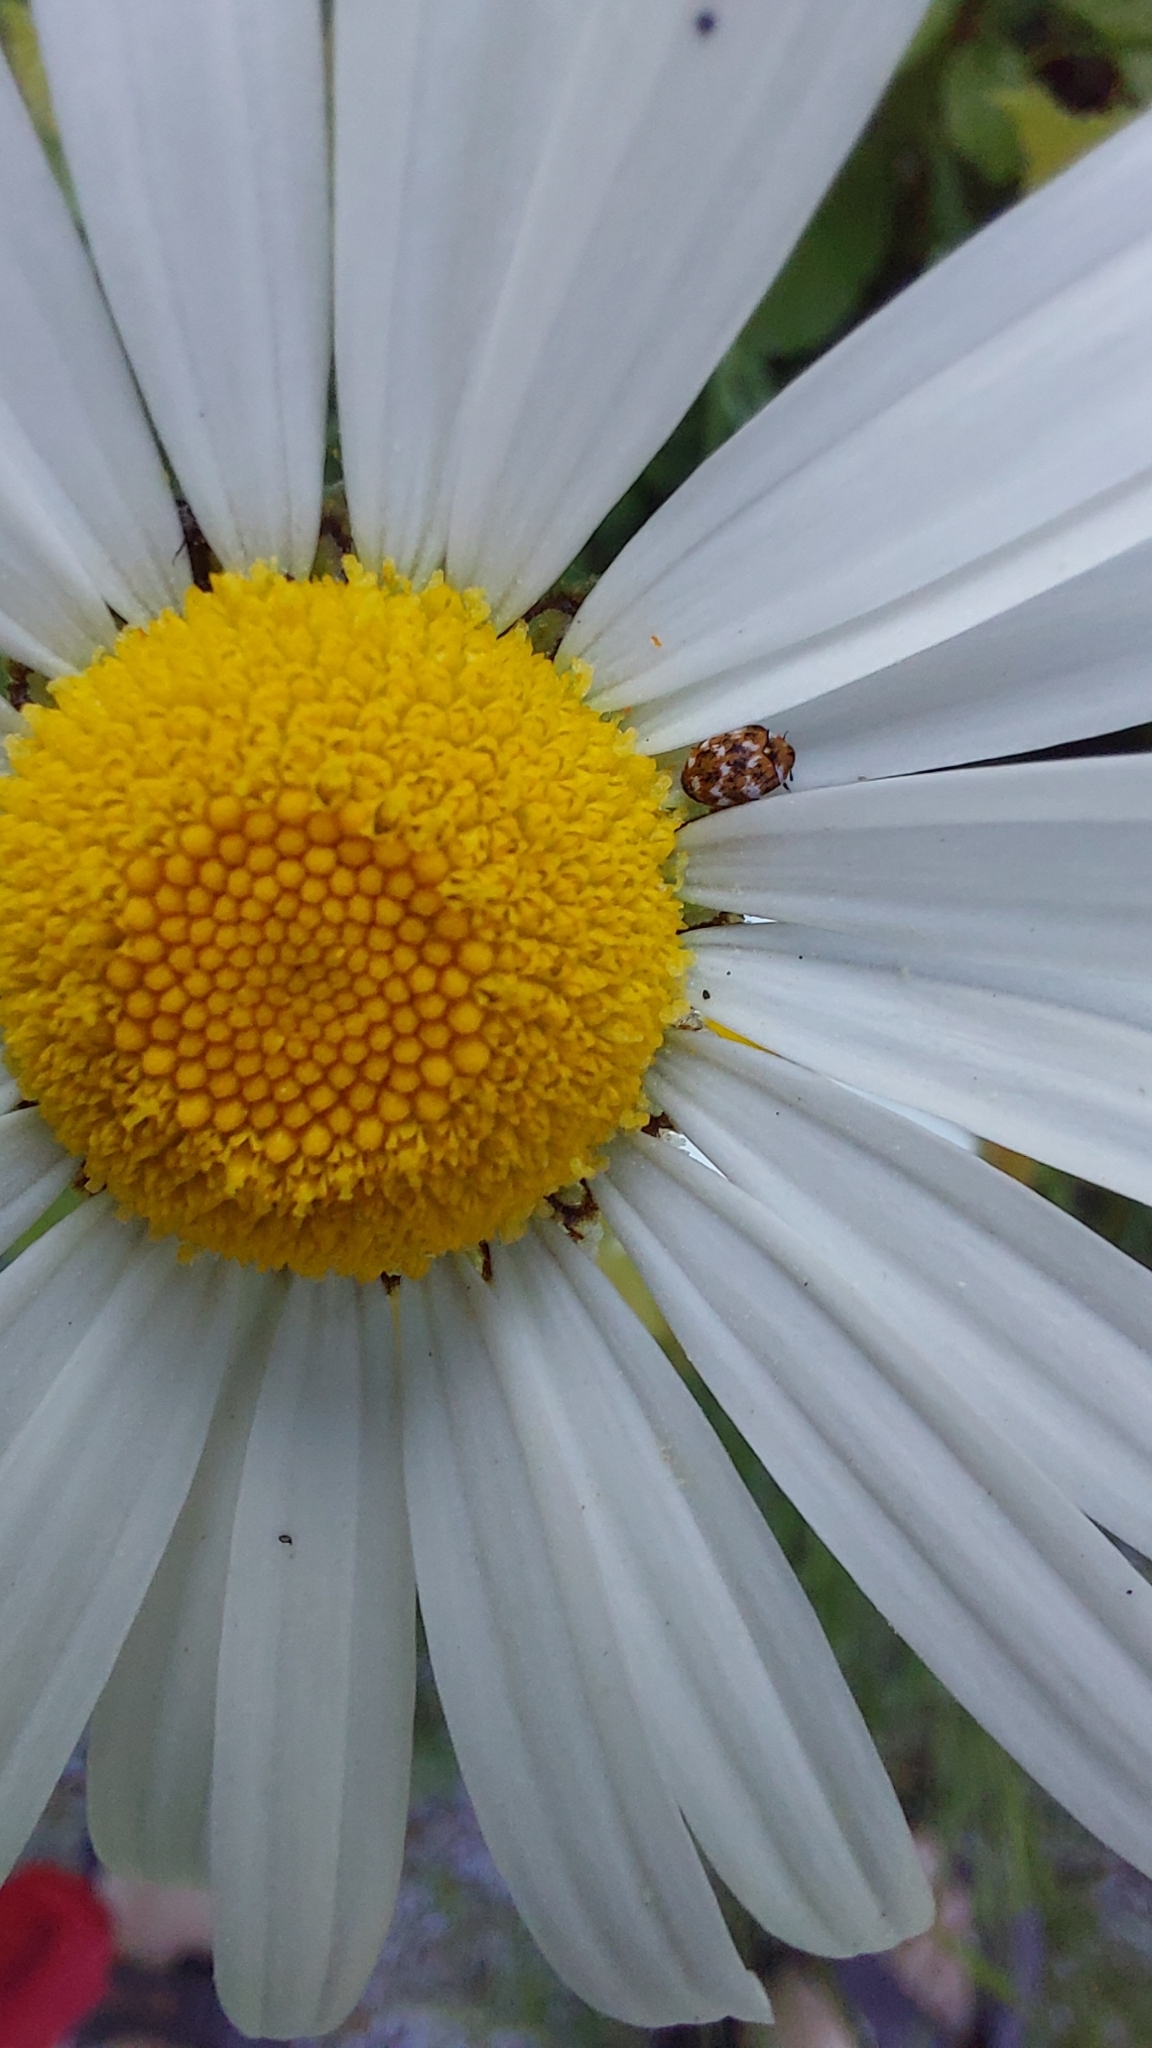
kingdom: Animalia
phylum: Arthropoda
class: Insecta
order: Coleoptera
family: Dermestidae
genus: Anthrenus
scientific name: Anthrenus verbasci
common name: Varied carpet beetle
